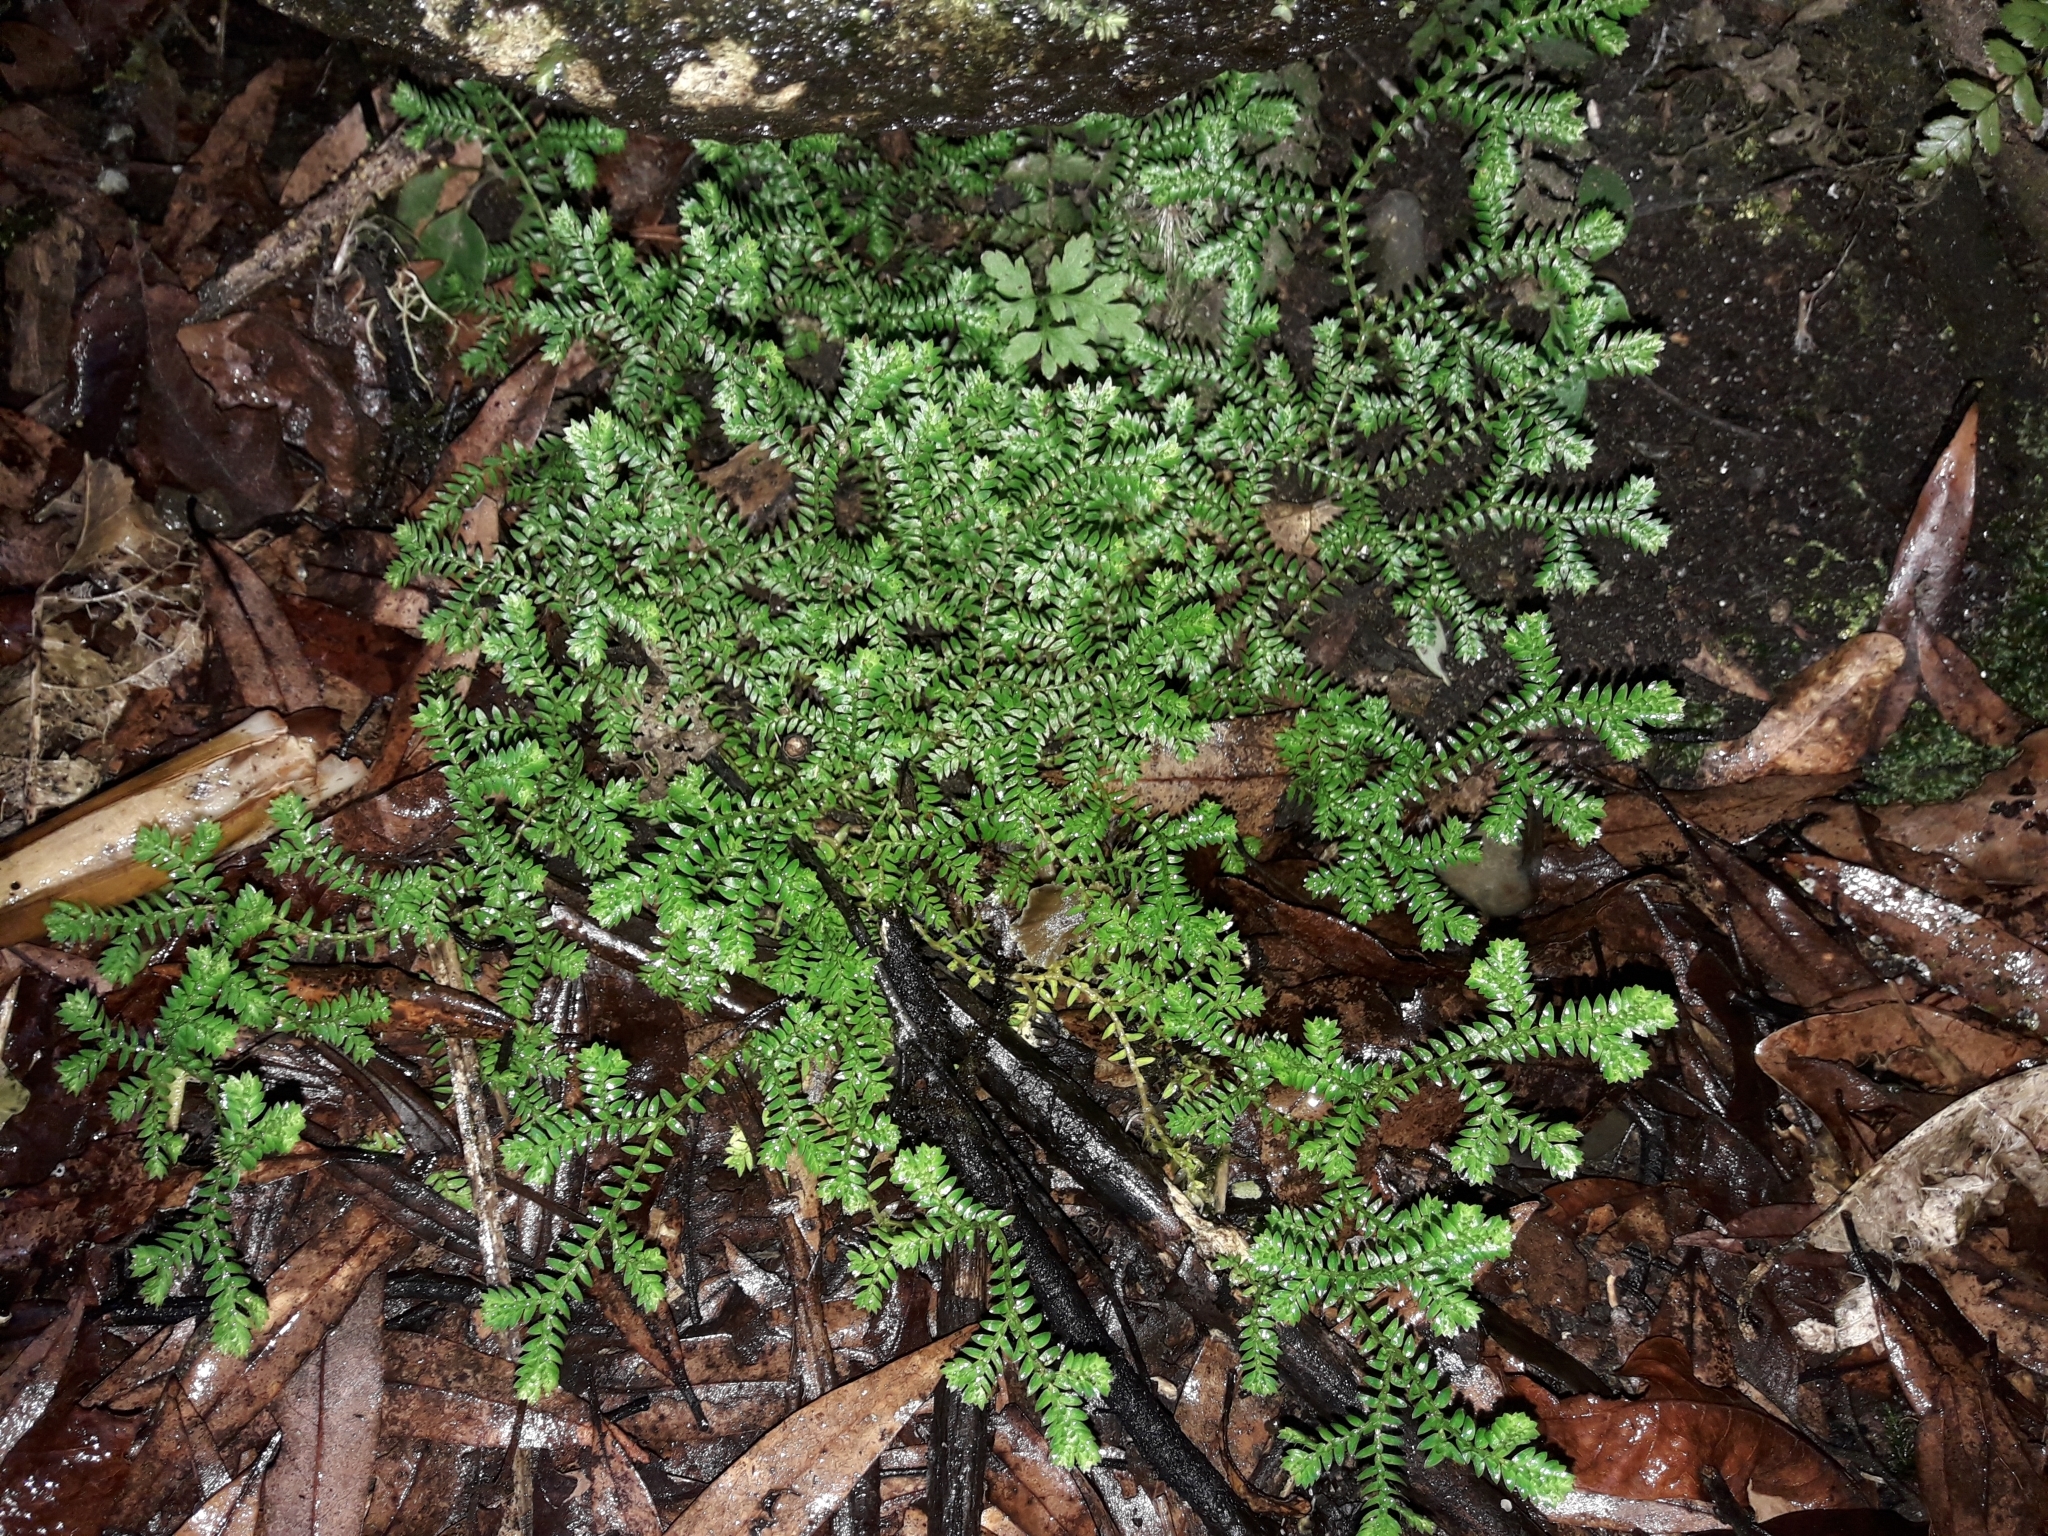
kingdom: Plantae
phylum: Tracheophyta
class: Lycopodiopsida
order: Selaginellales
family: Selaginellaceae
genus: Selaginella
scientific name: Selaginella kraussiana
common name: Krauss' spikemoss
